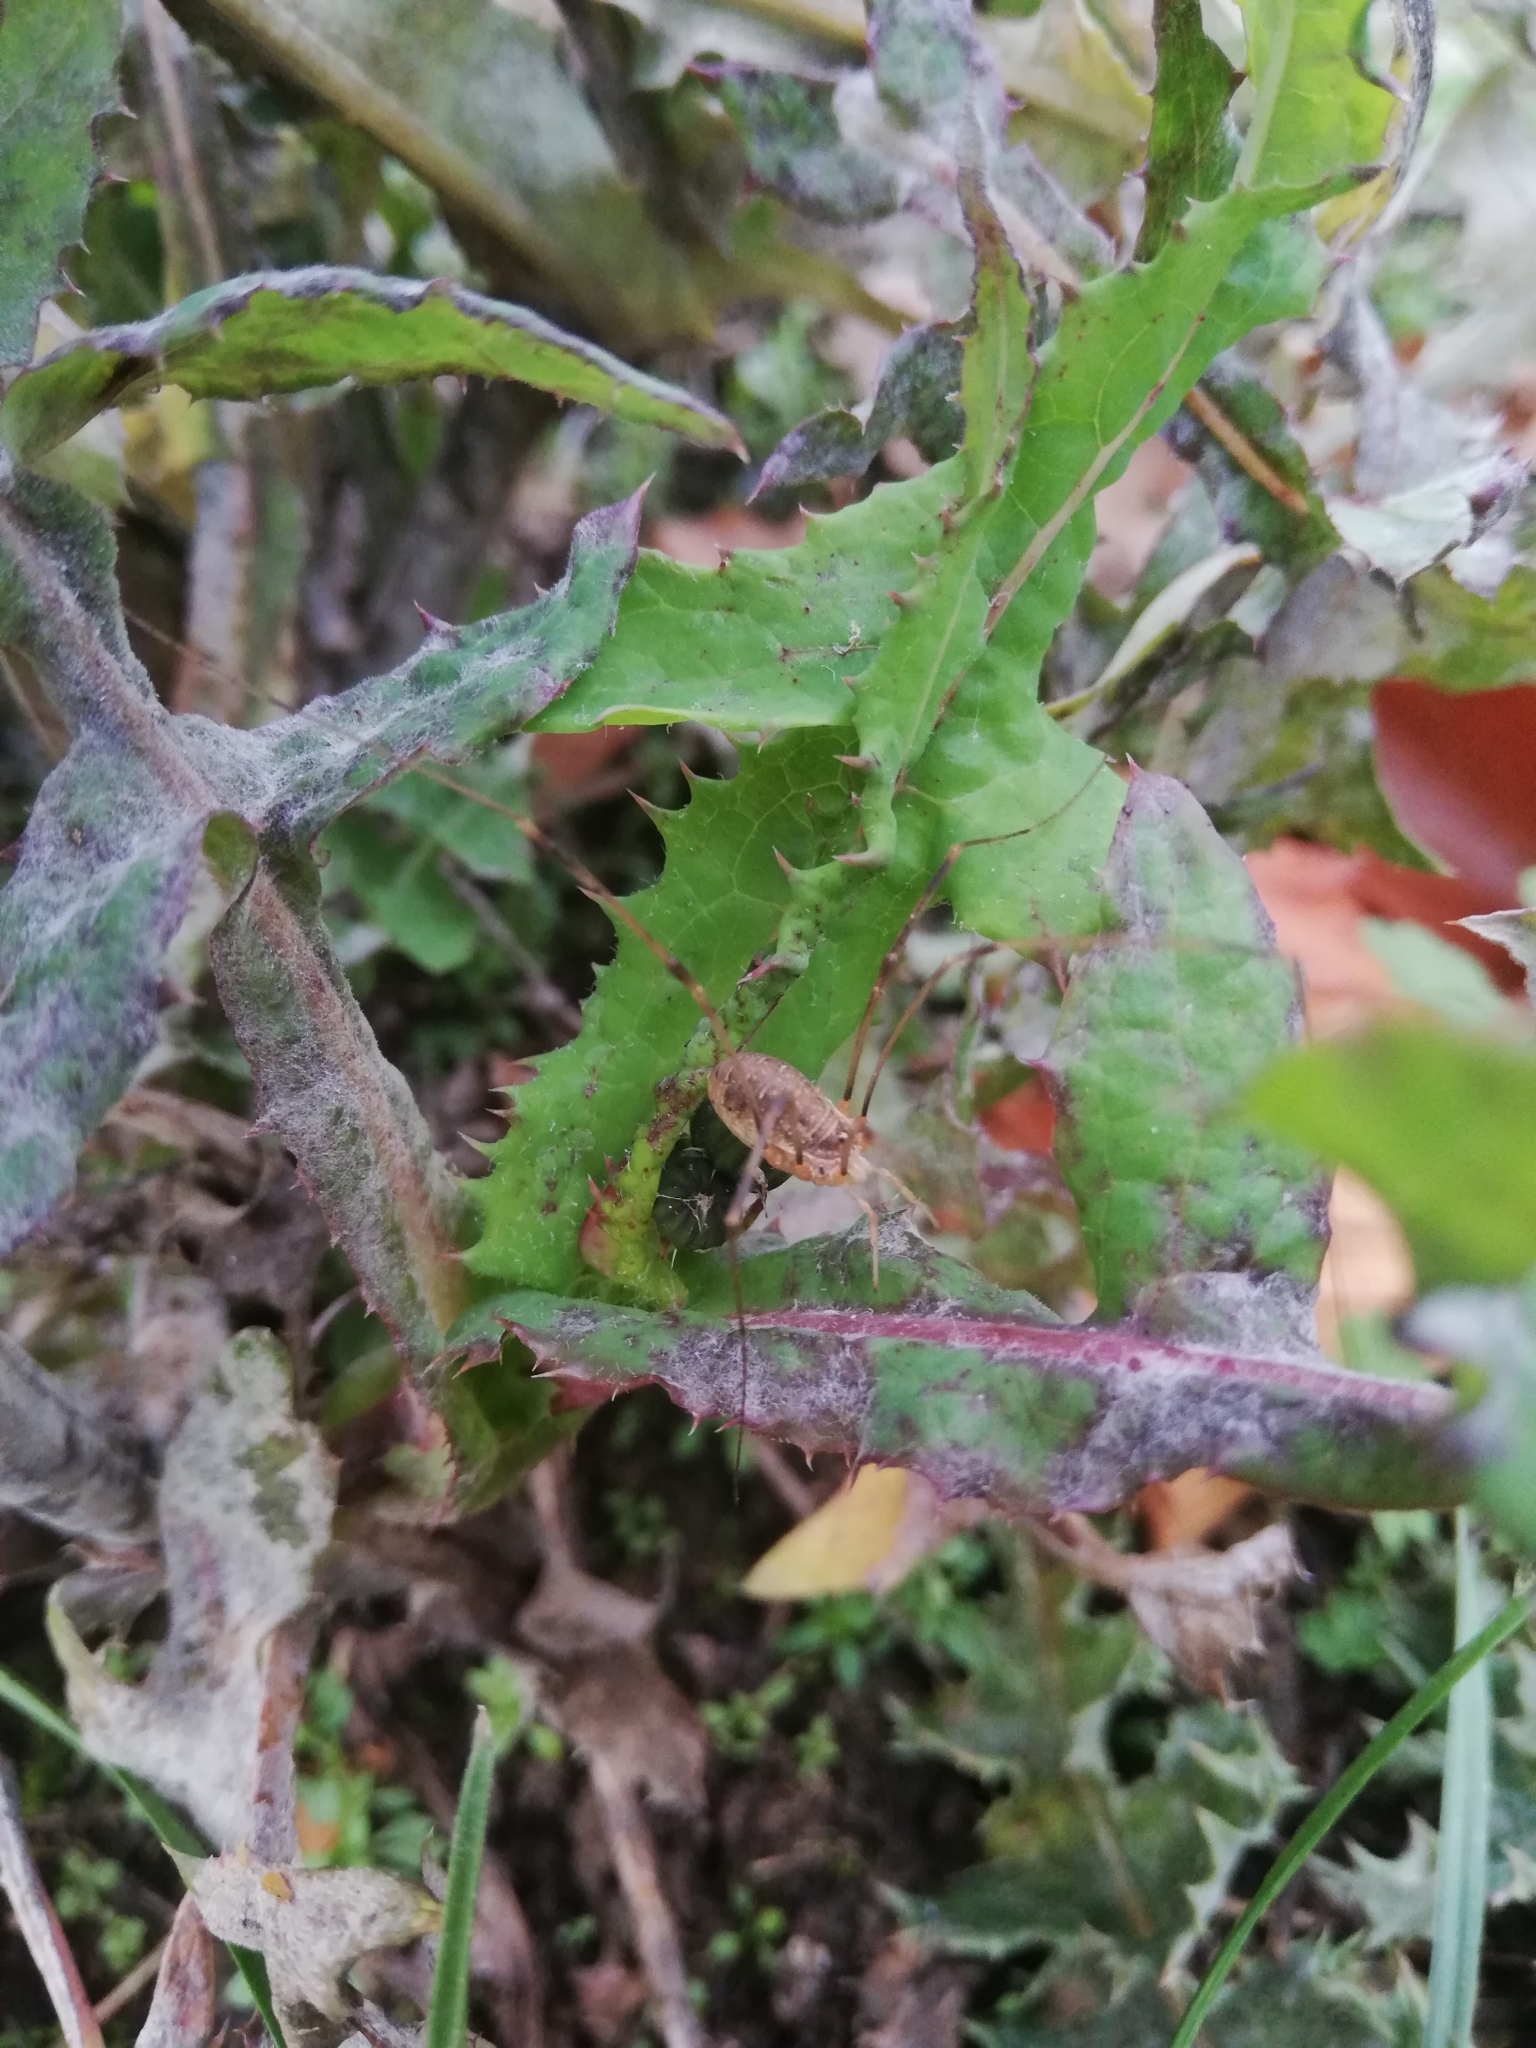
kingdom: Animalia
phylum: Arthropoda
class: Arachnida
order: Opiliones
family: Phalangiidae
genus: Opilio
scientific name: Opilio canestrinii
